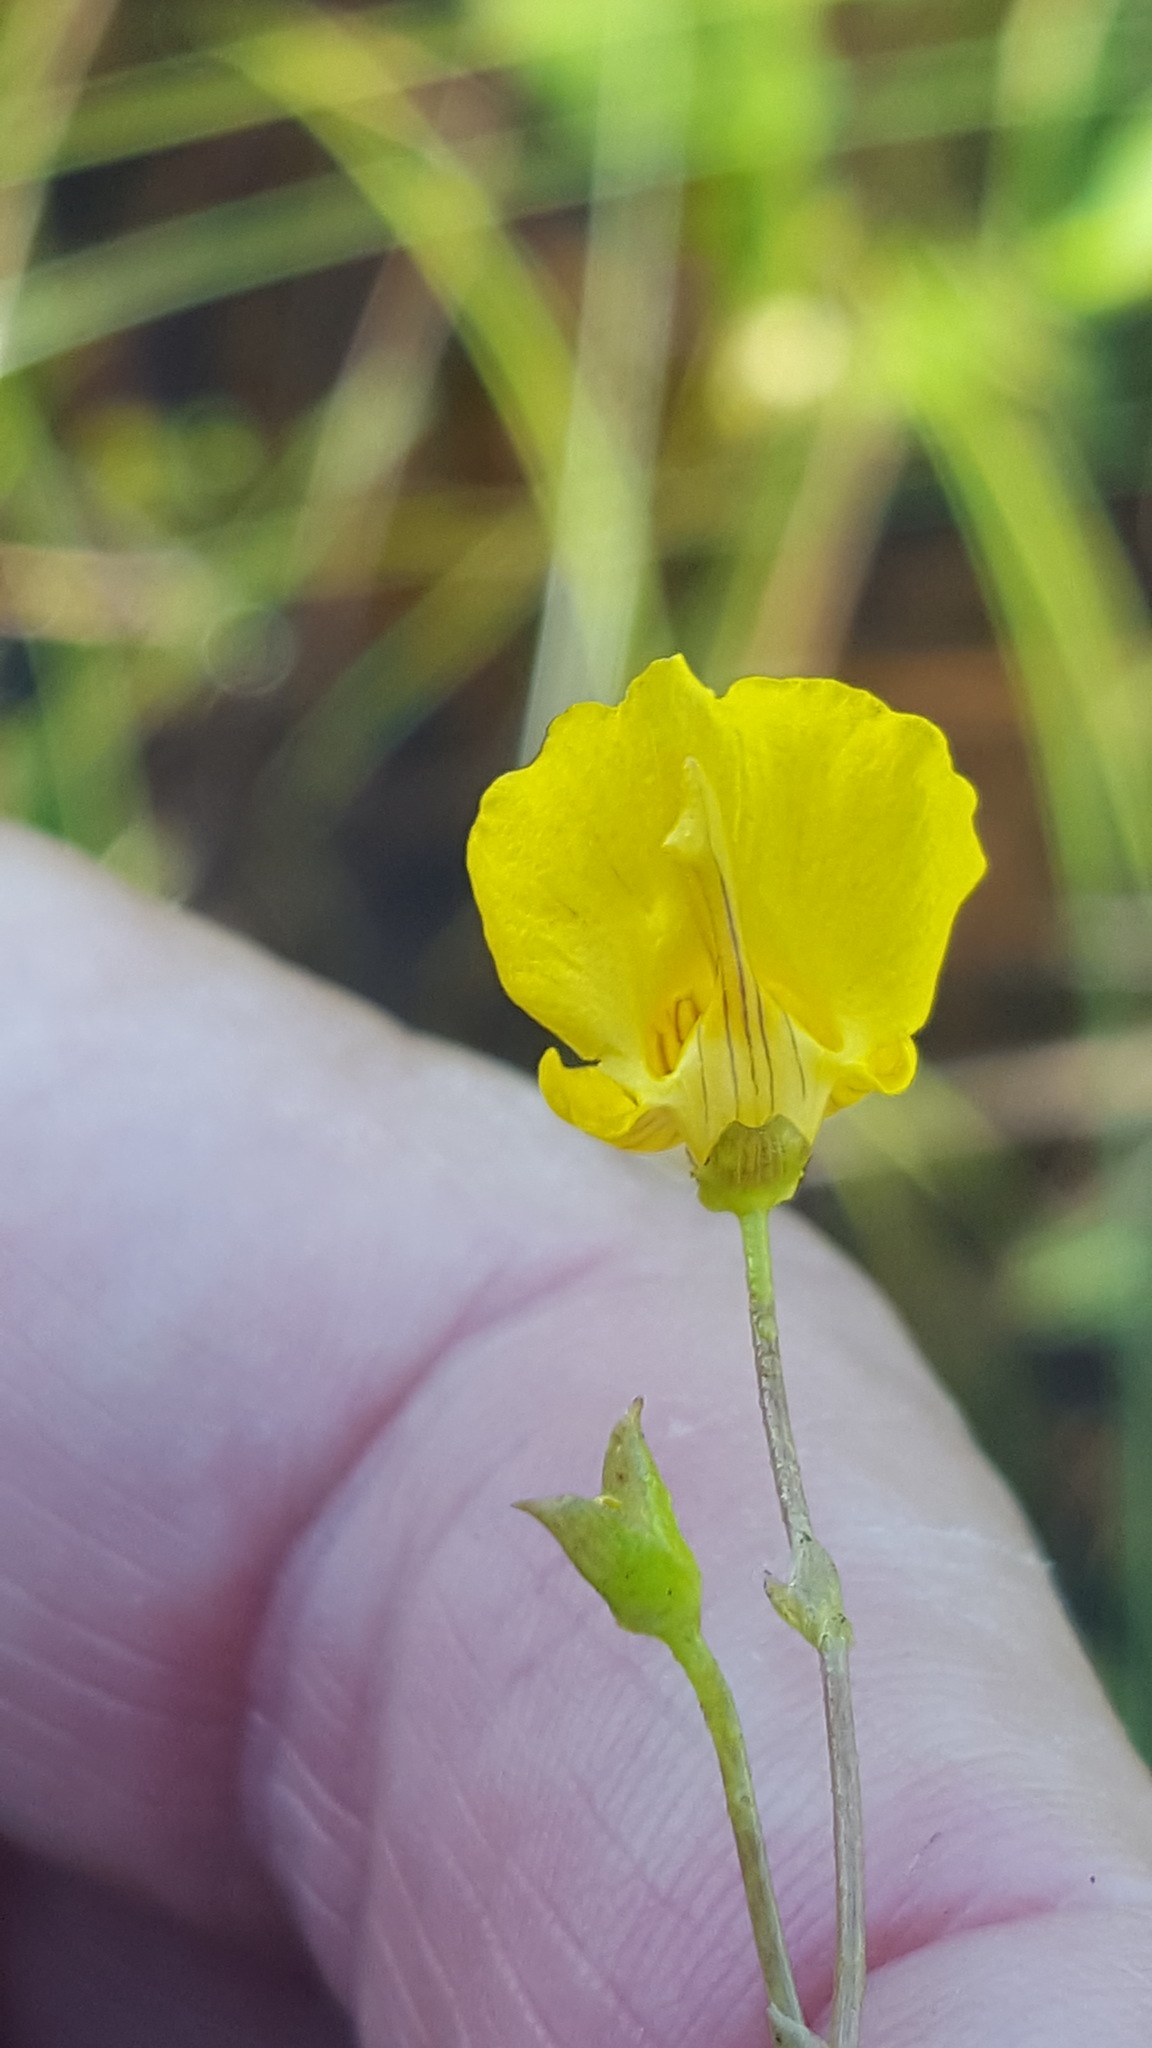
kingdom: Plantae
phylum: Tracheophyta
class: Magnoliopsida
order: Lamiales
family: Lentibulariaceae
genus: Utricularia
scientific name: Utricularia intermedia
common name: Intermediate bladderwort
